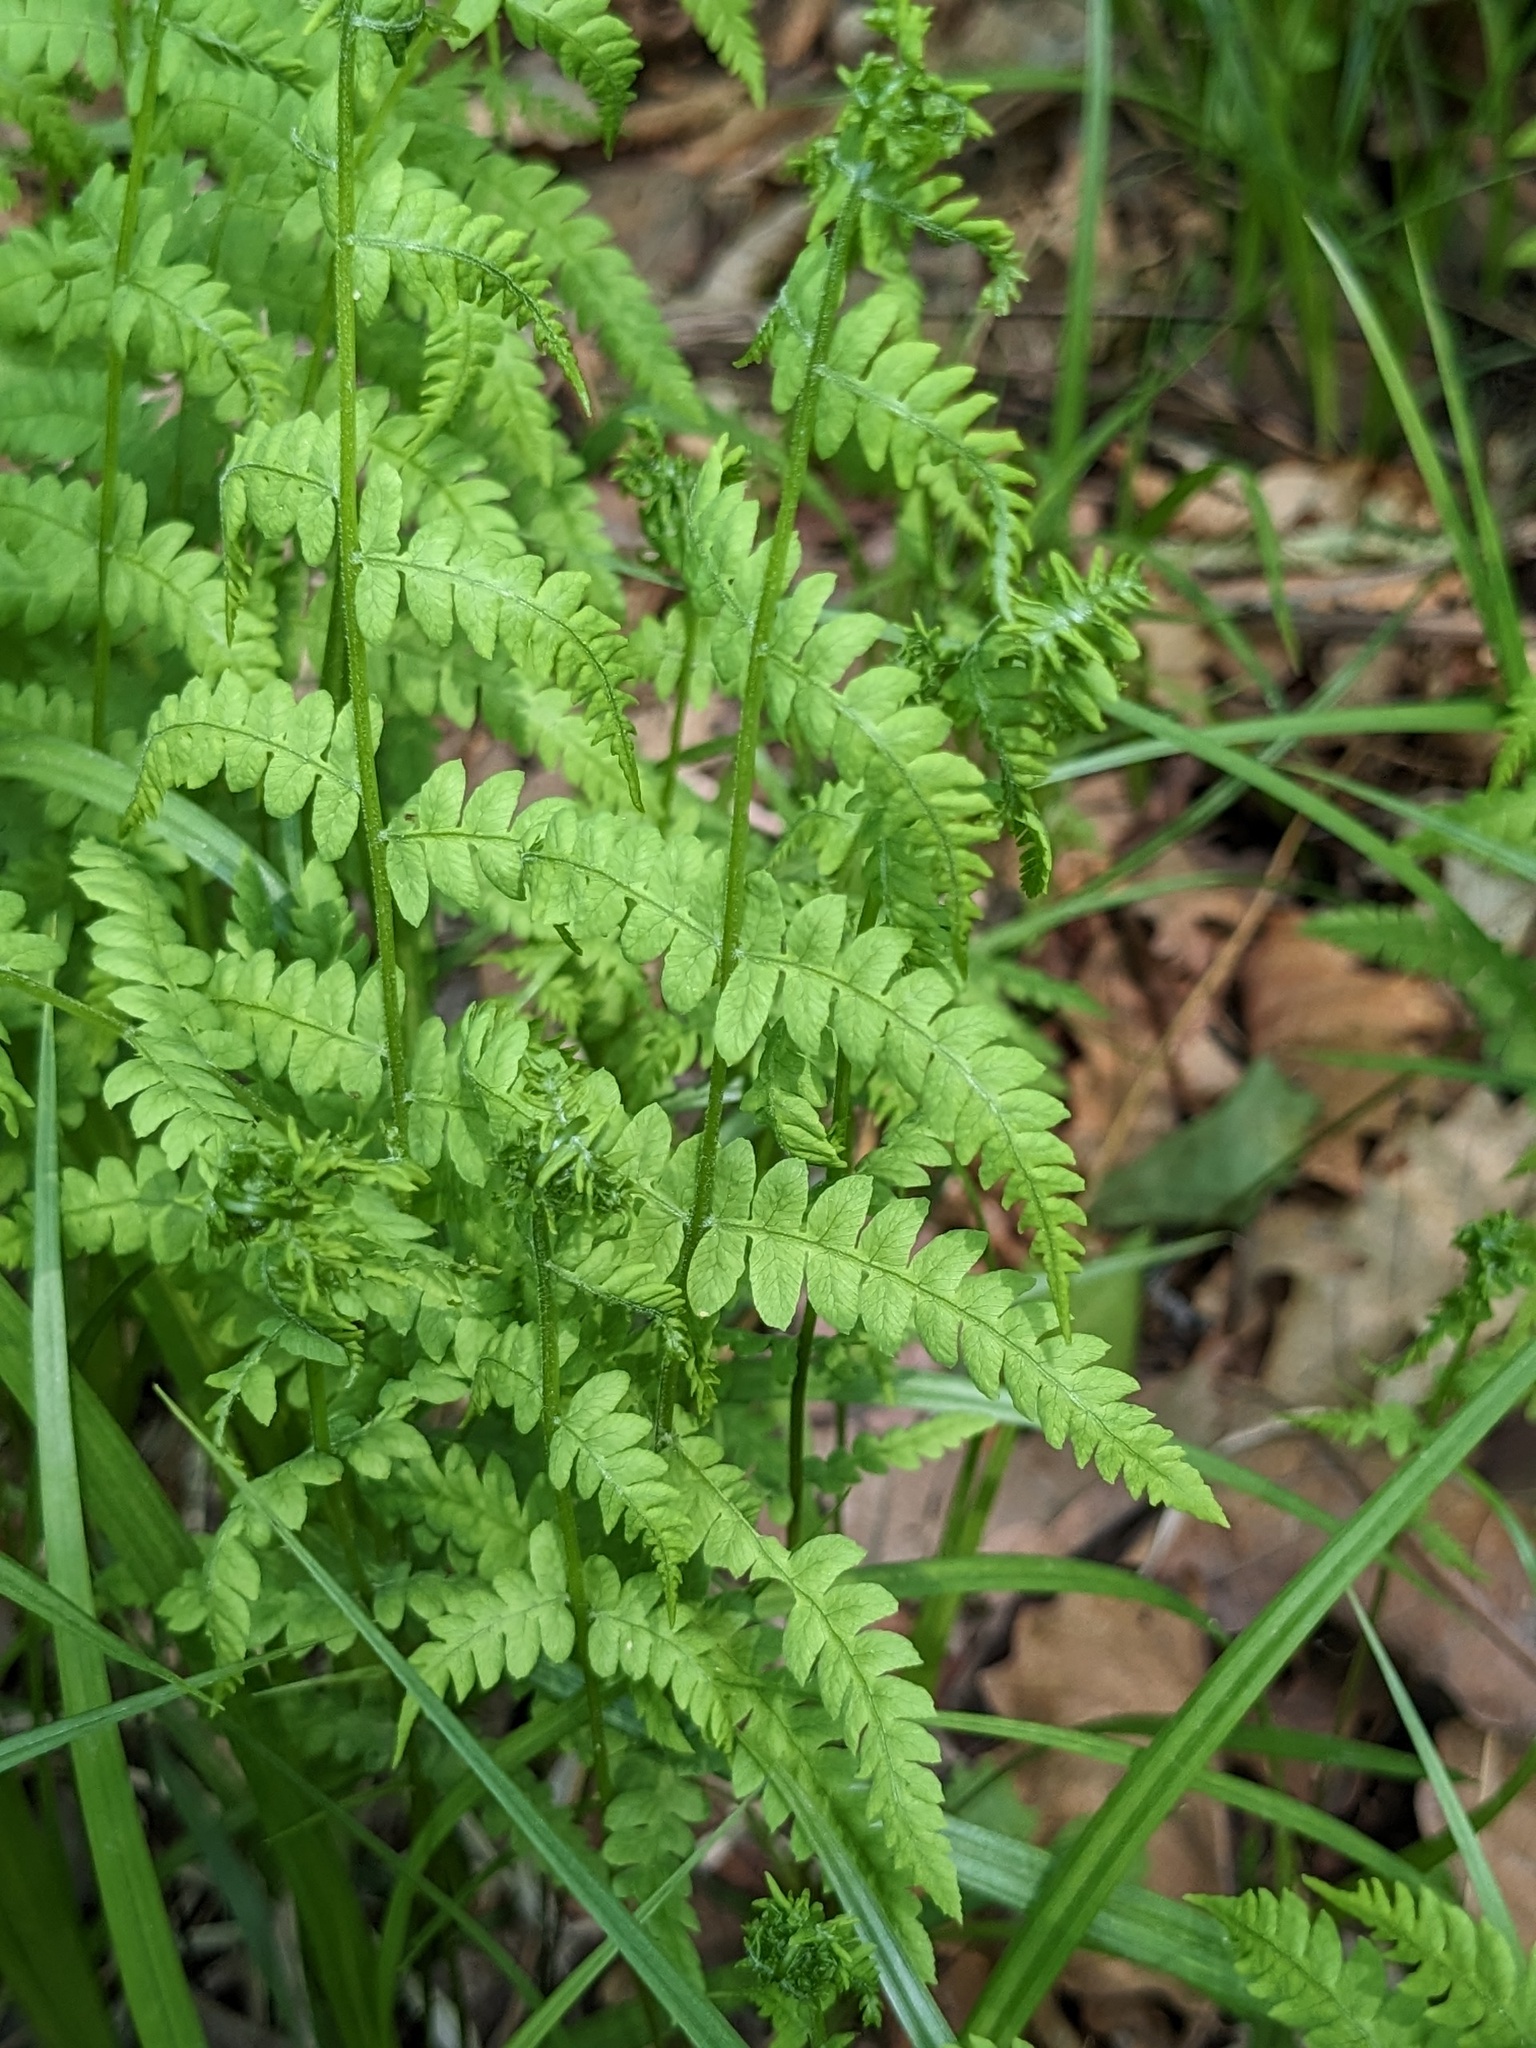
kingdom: Plantae
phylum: Tracheophyta
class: Polypodiopsida
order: Polypodiales
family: Thelypteridaceae
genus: Thelypteris
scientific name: Thelypteris palustris
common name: Marsh fern
